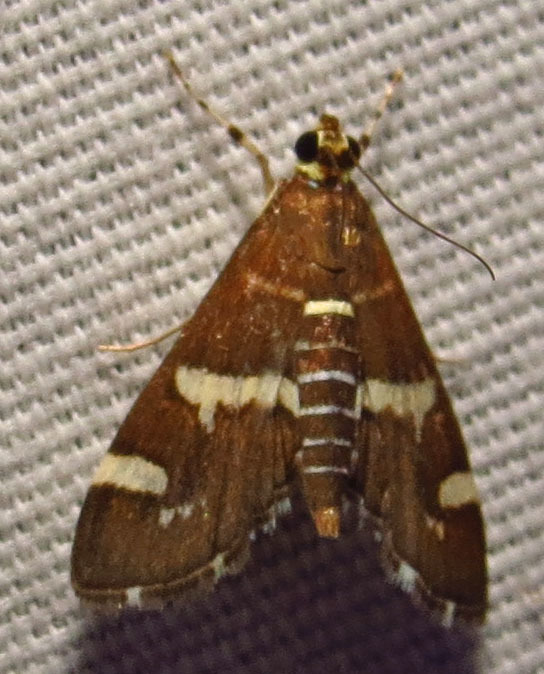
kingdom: Animalia
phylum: Arthropoda
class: Insecta
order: Lepidoptera
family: Crambidae
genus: Spoladea
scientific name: Spoladea recurvalis
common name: Beet webworm moth
